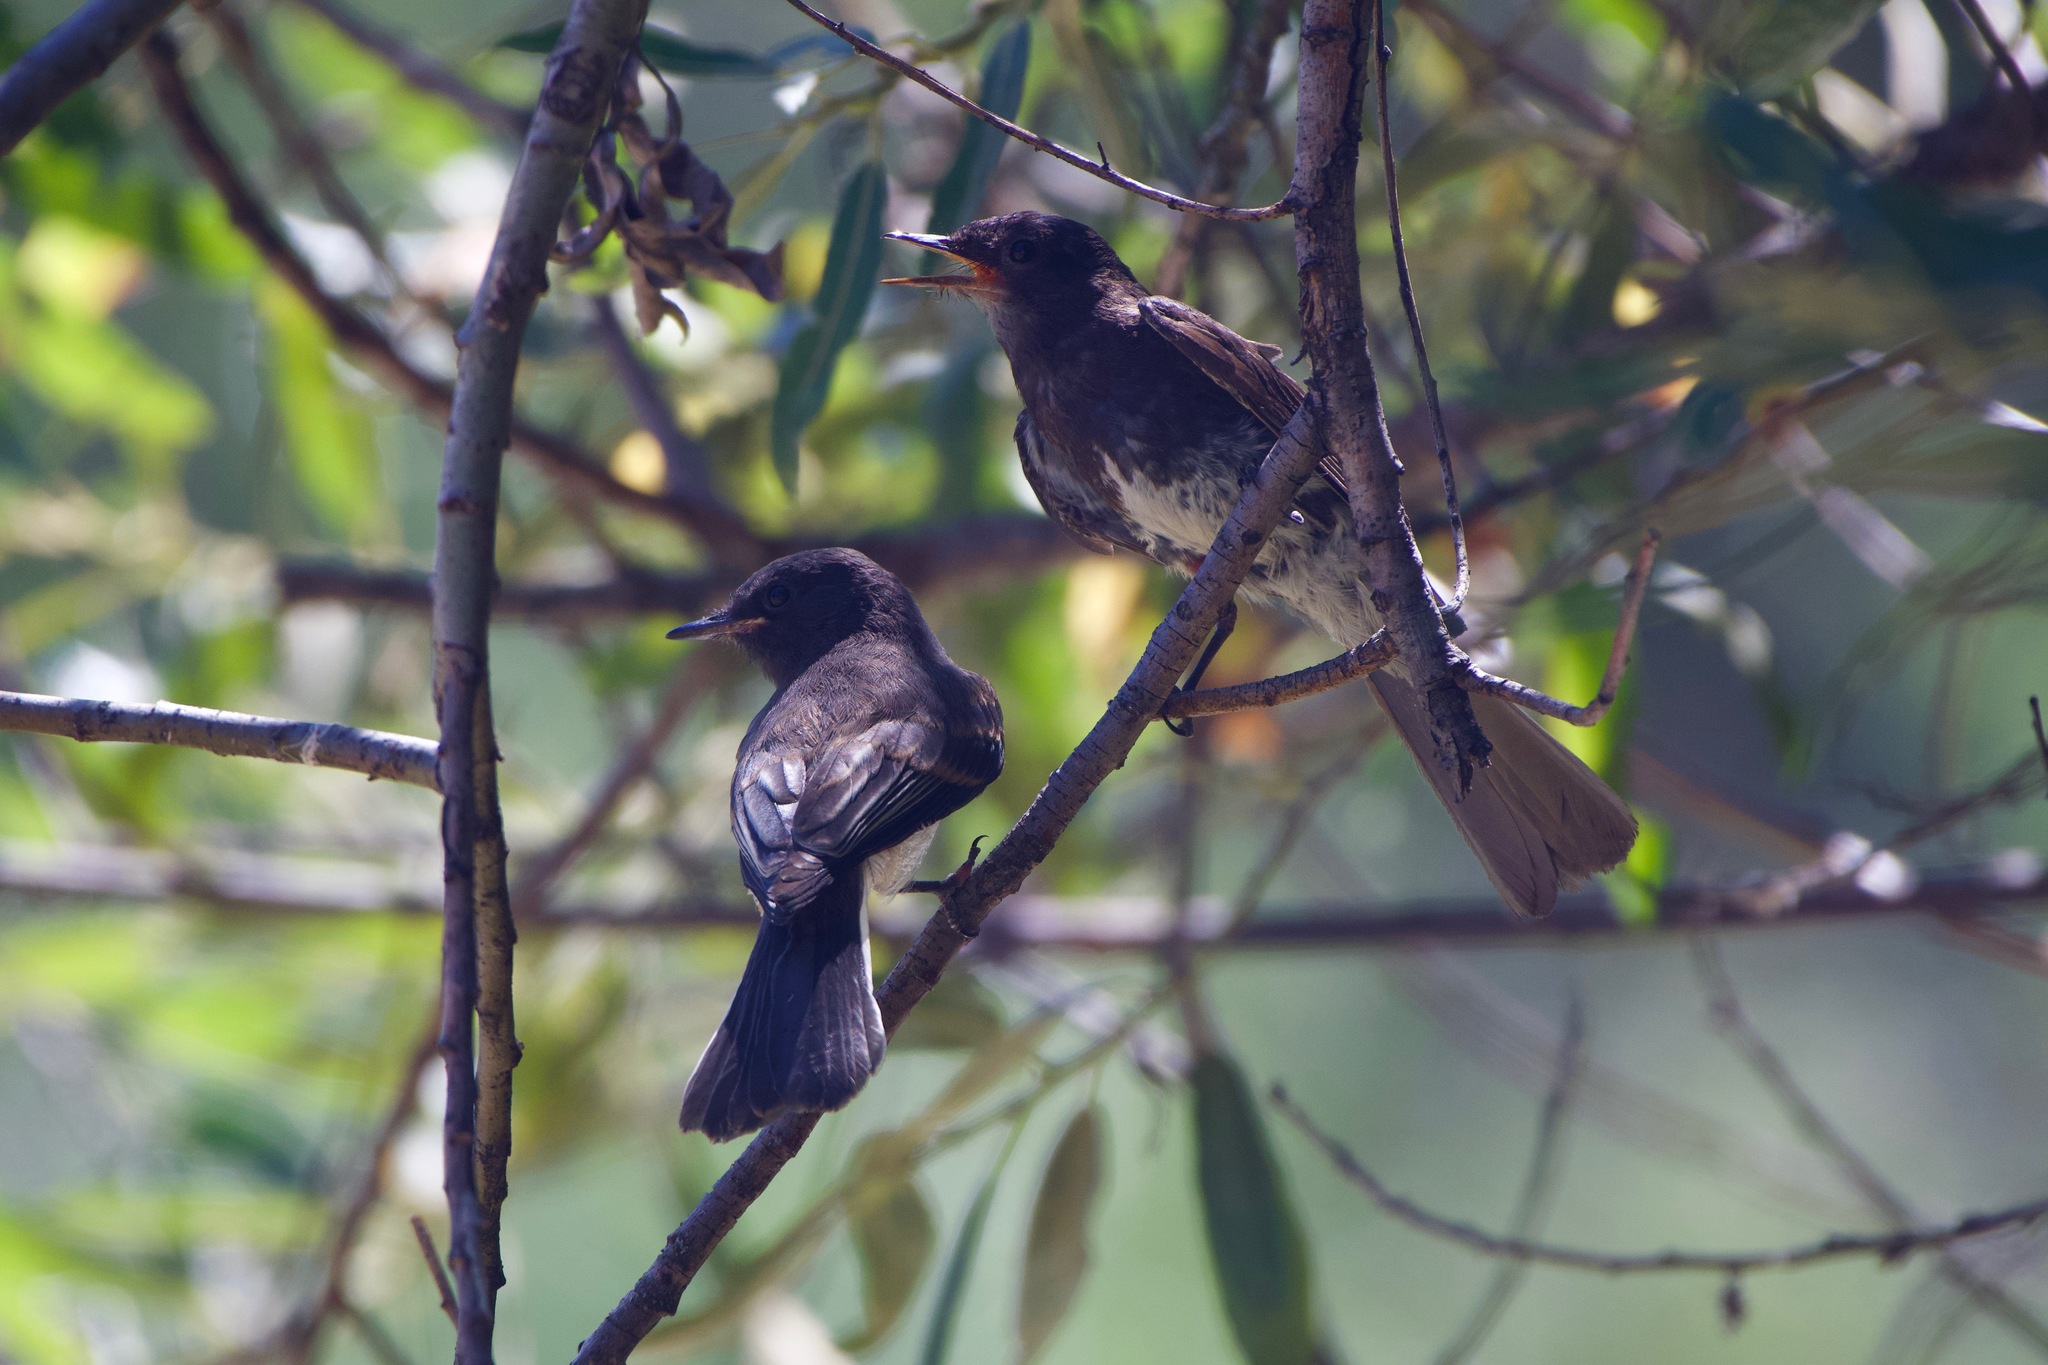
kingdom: Animalia
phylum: Chordata
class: Aves
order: Passeriformes
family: Tyrannidae
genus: Sayornis
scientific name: Sayornis nigricans
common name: Black phoebe
